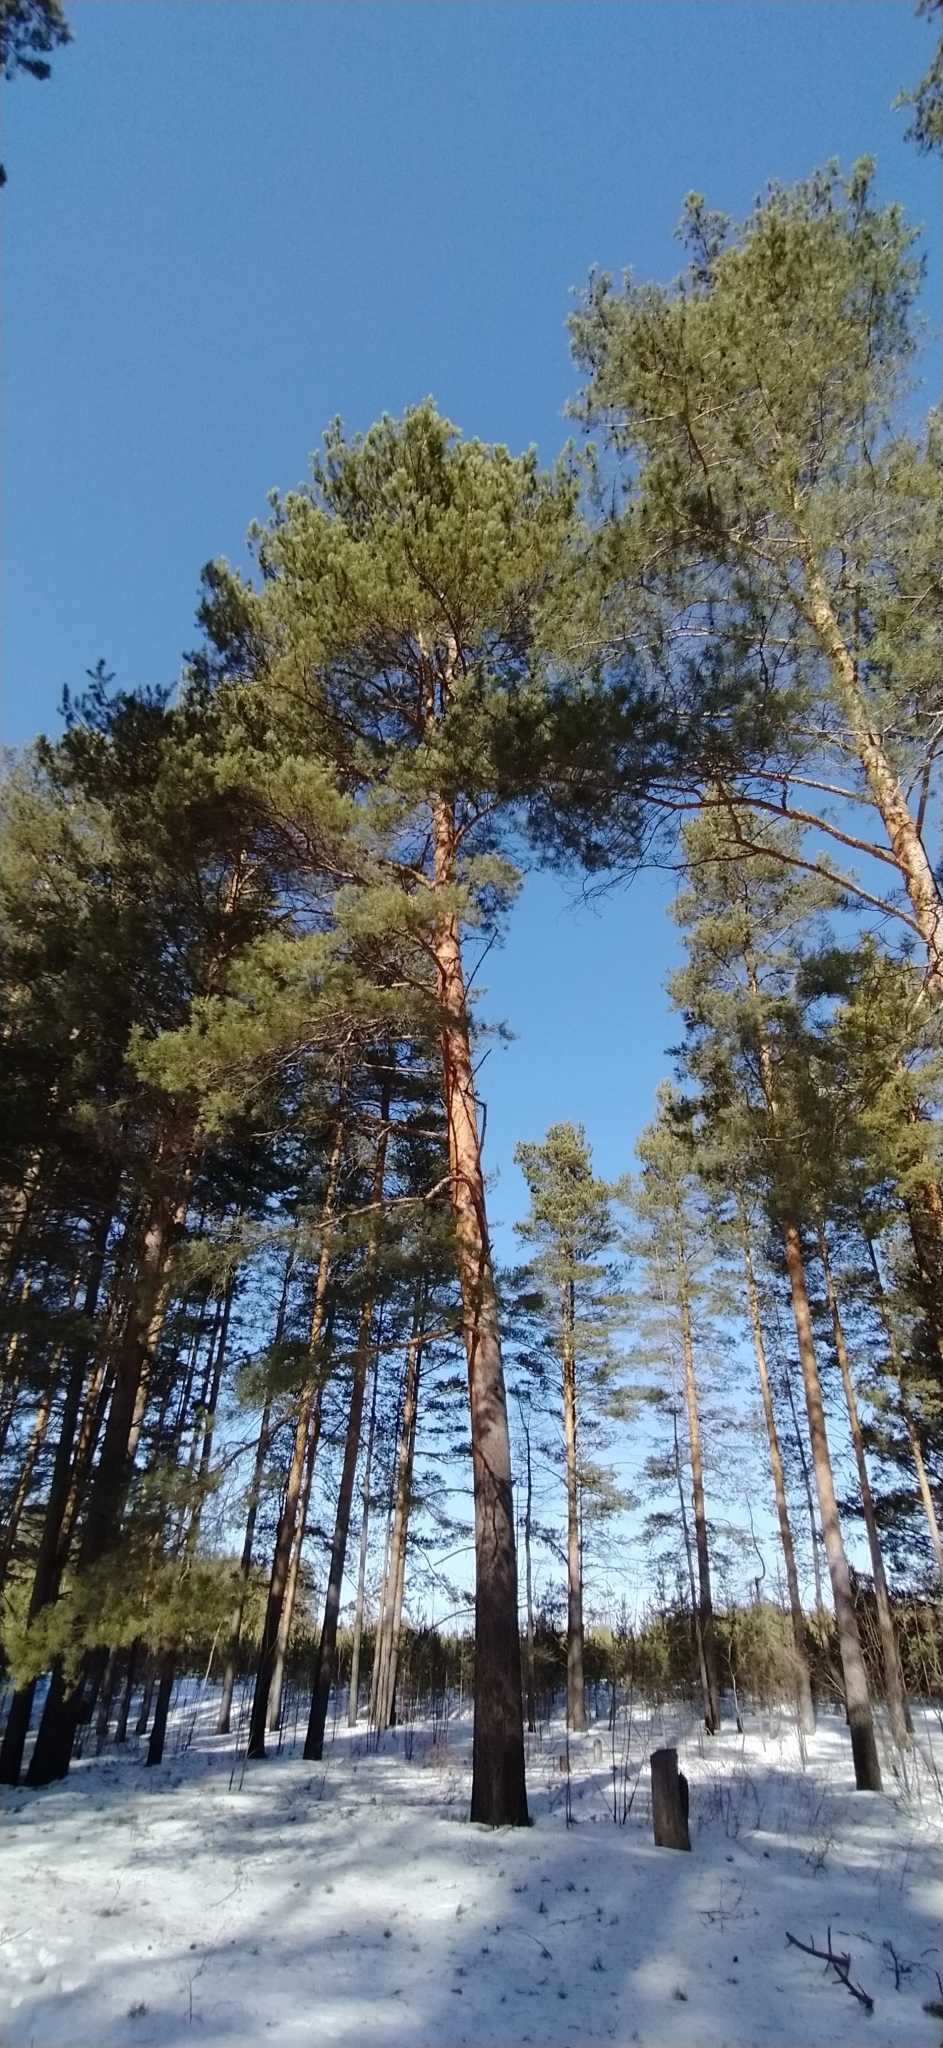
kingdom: Plantae
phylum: Tracheophyta
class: Pinopsida
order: Pinales
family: Pinaceae
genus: Pinus
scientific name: Pinus sylvestris
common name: Scots pine
